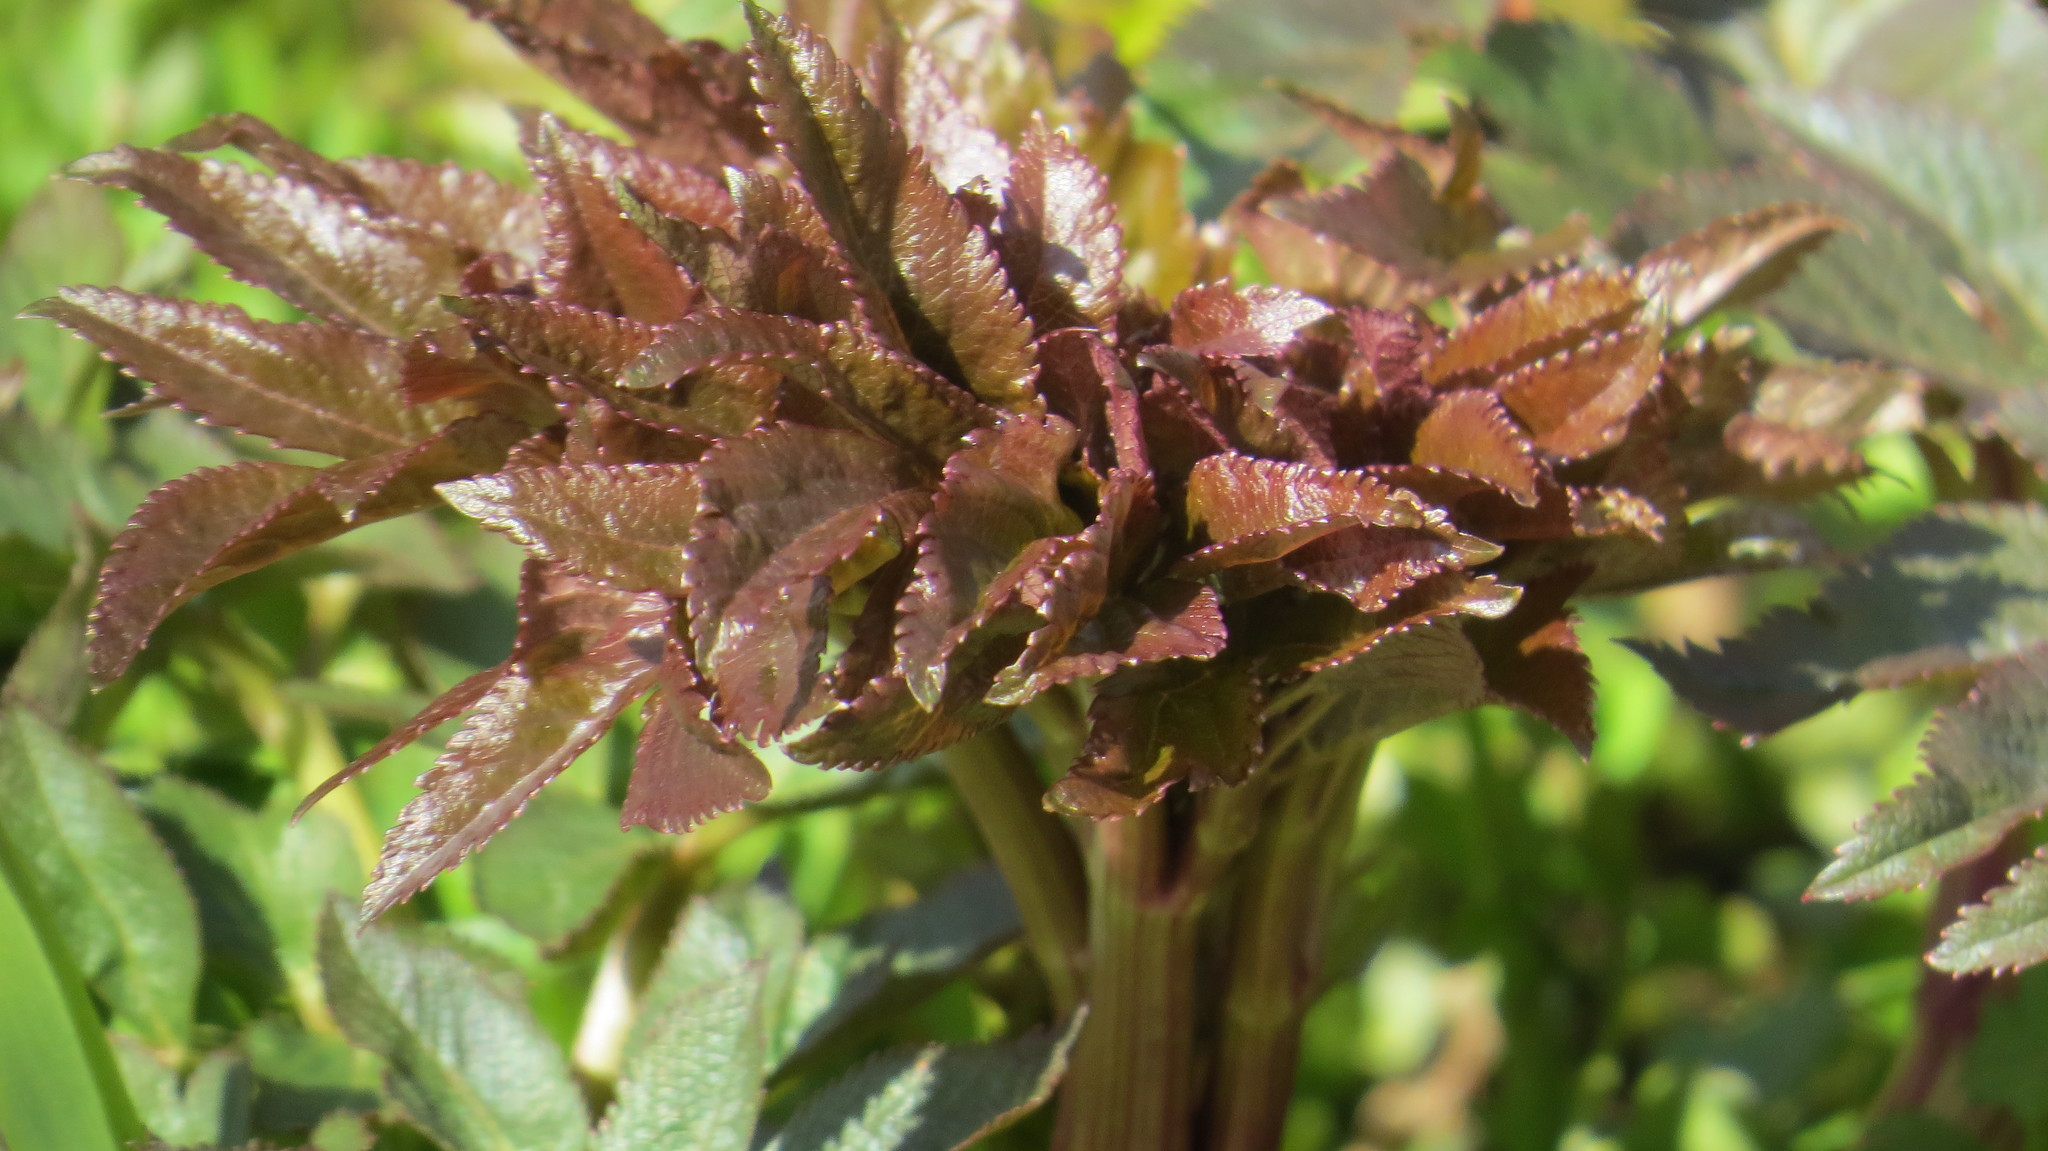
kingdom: Plantae
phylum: Tracheophyta
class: Magnoliopsida
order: Apiales
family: Apiaceae
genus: Angelica
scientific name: Angelica atropurpurea
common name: Great angelica
